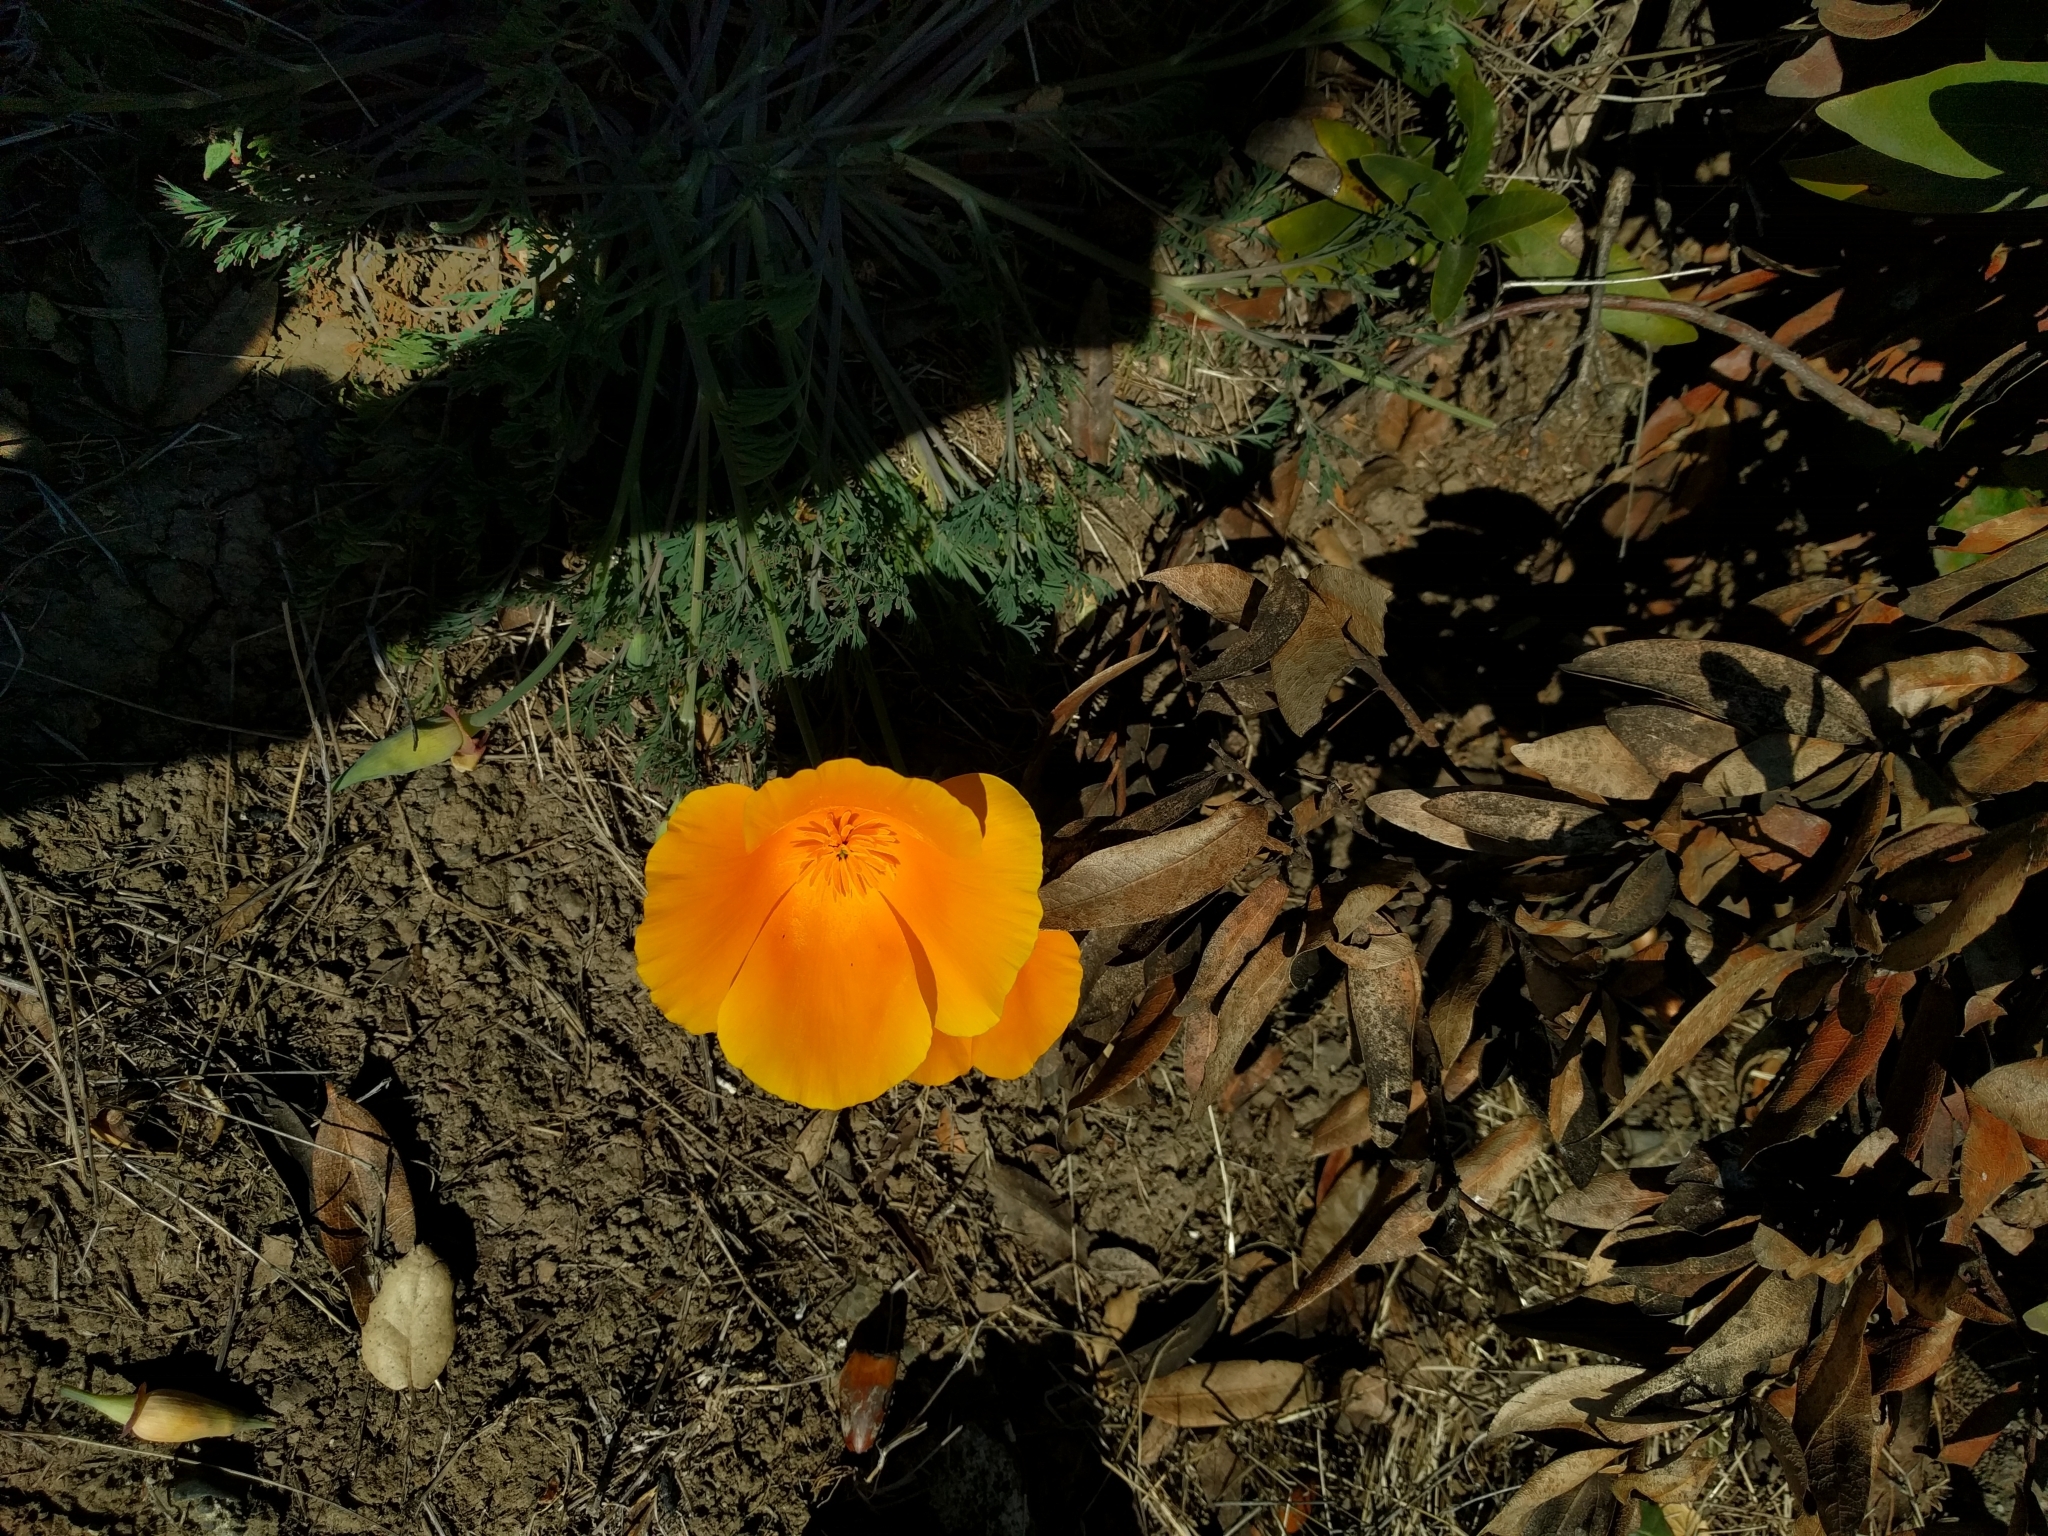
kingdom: Plantae
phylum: Tracheophyta
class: Magnoliopsida
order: Ranunculales
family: Papaveraceae
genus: Eschscholzia
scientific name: Eschscholzia californica
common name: California poppy
